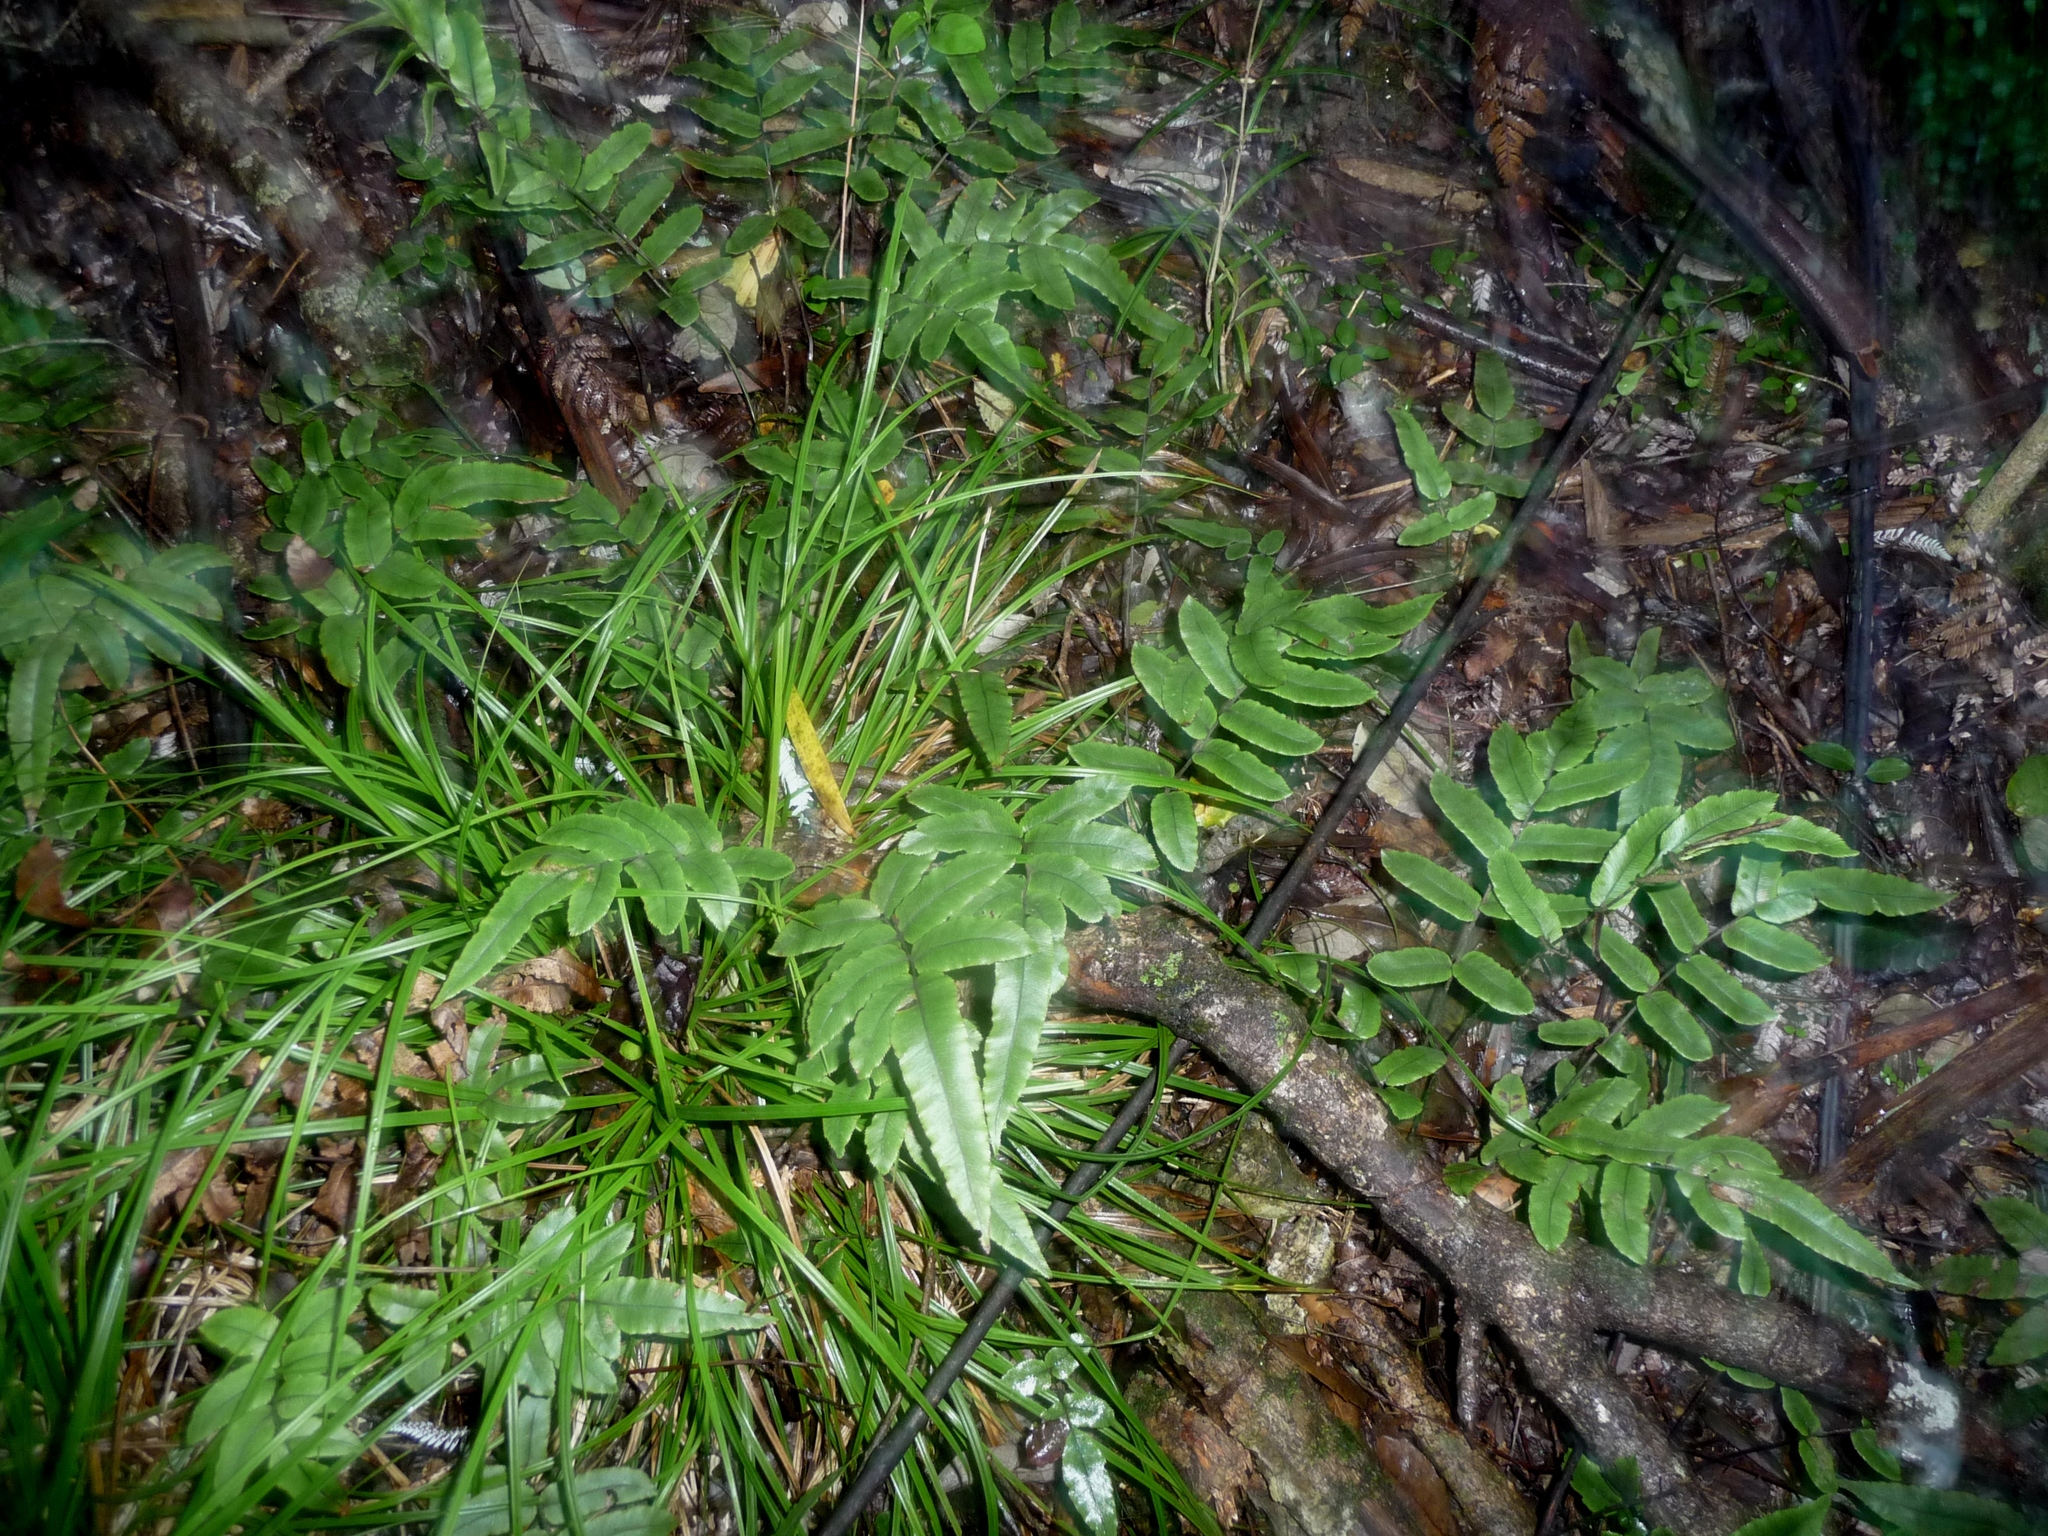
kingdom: Plantae
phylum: Tracheophyta
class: Polypodiopsida
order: Polypodiales
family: Blechnaceae
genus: Parablechnum
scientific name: Parablechnum procerum
